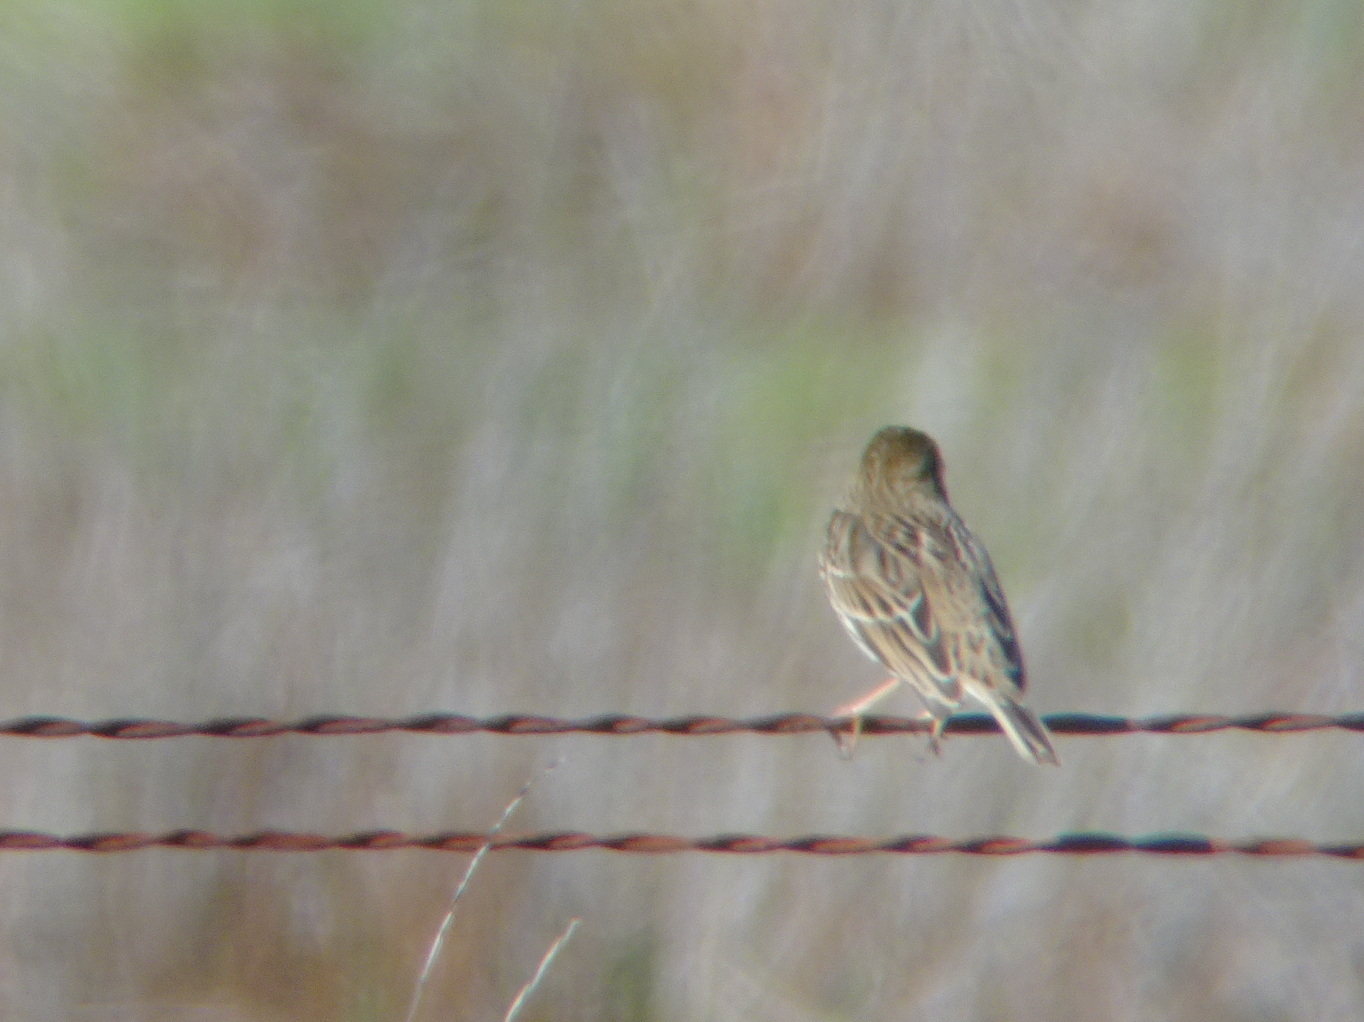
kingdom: Animalia
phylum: Chordata
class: Aves
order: Passeriformes
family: Passerellidae
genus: Passerculus
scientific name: Passerculus sandwichensis
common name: Savannah sparrow
